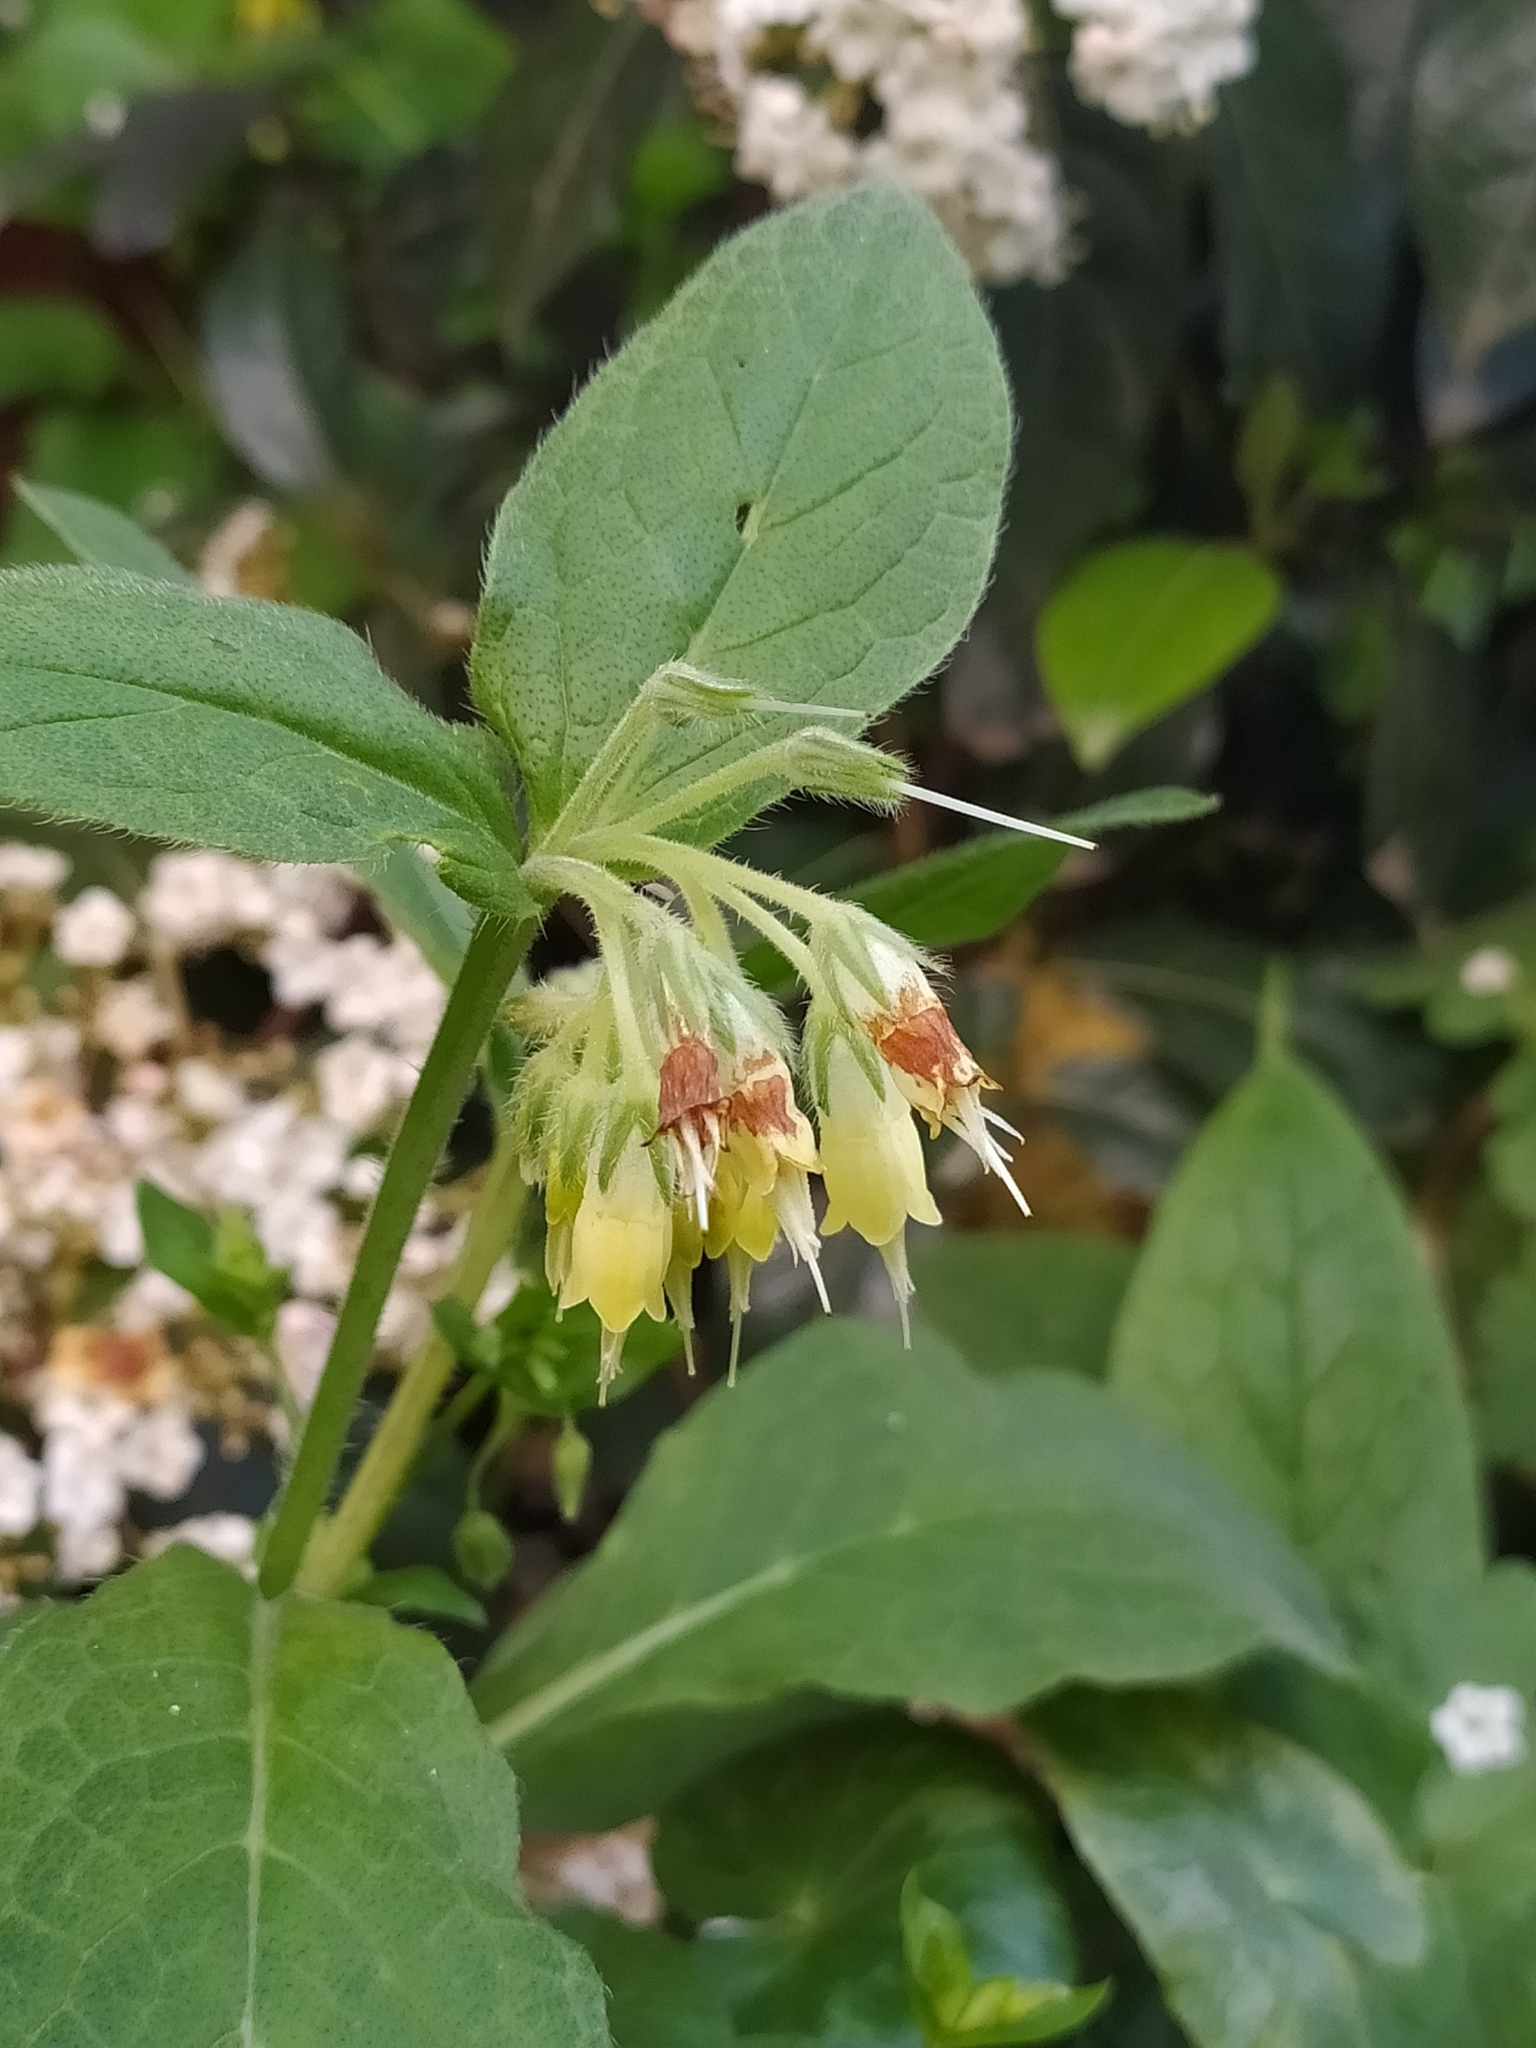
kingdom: Plantae
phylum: Tracheophyta
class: Magnoliopsida
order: Boraginales
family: Boraginaceae
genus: Symphytum
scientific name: Symphytum bulbosum
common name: Bulbous comfrey
